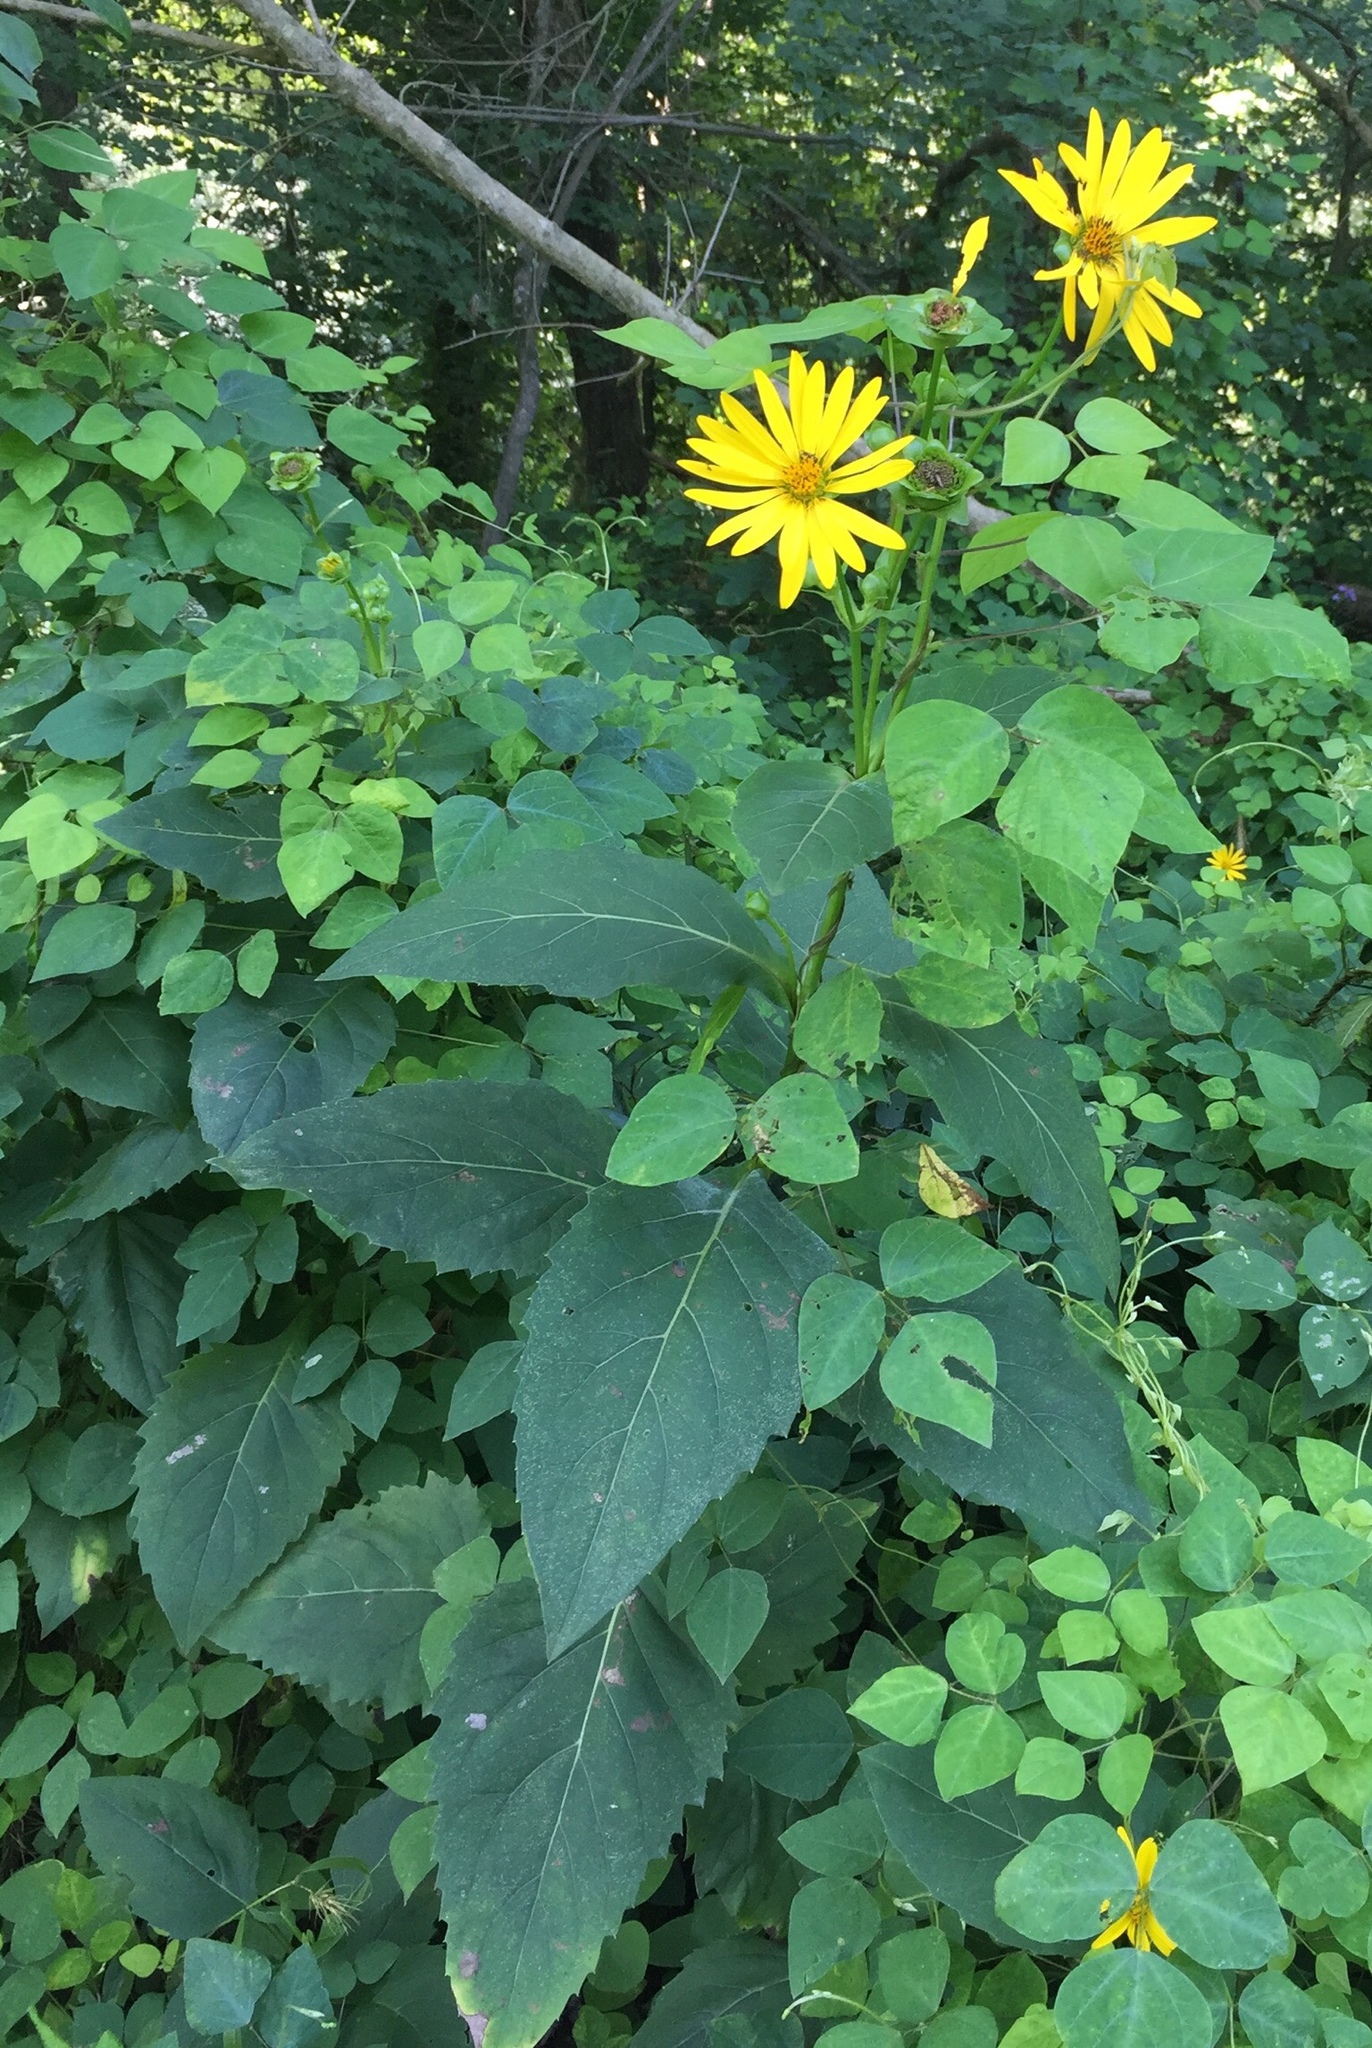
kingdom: Plantae
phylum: Tracheophyta
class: Magnoliopsida
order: Asterales
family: Asteraceae
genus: Silphium
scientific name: Silphium perfoliatum
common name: Cup-plant
